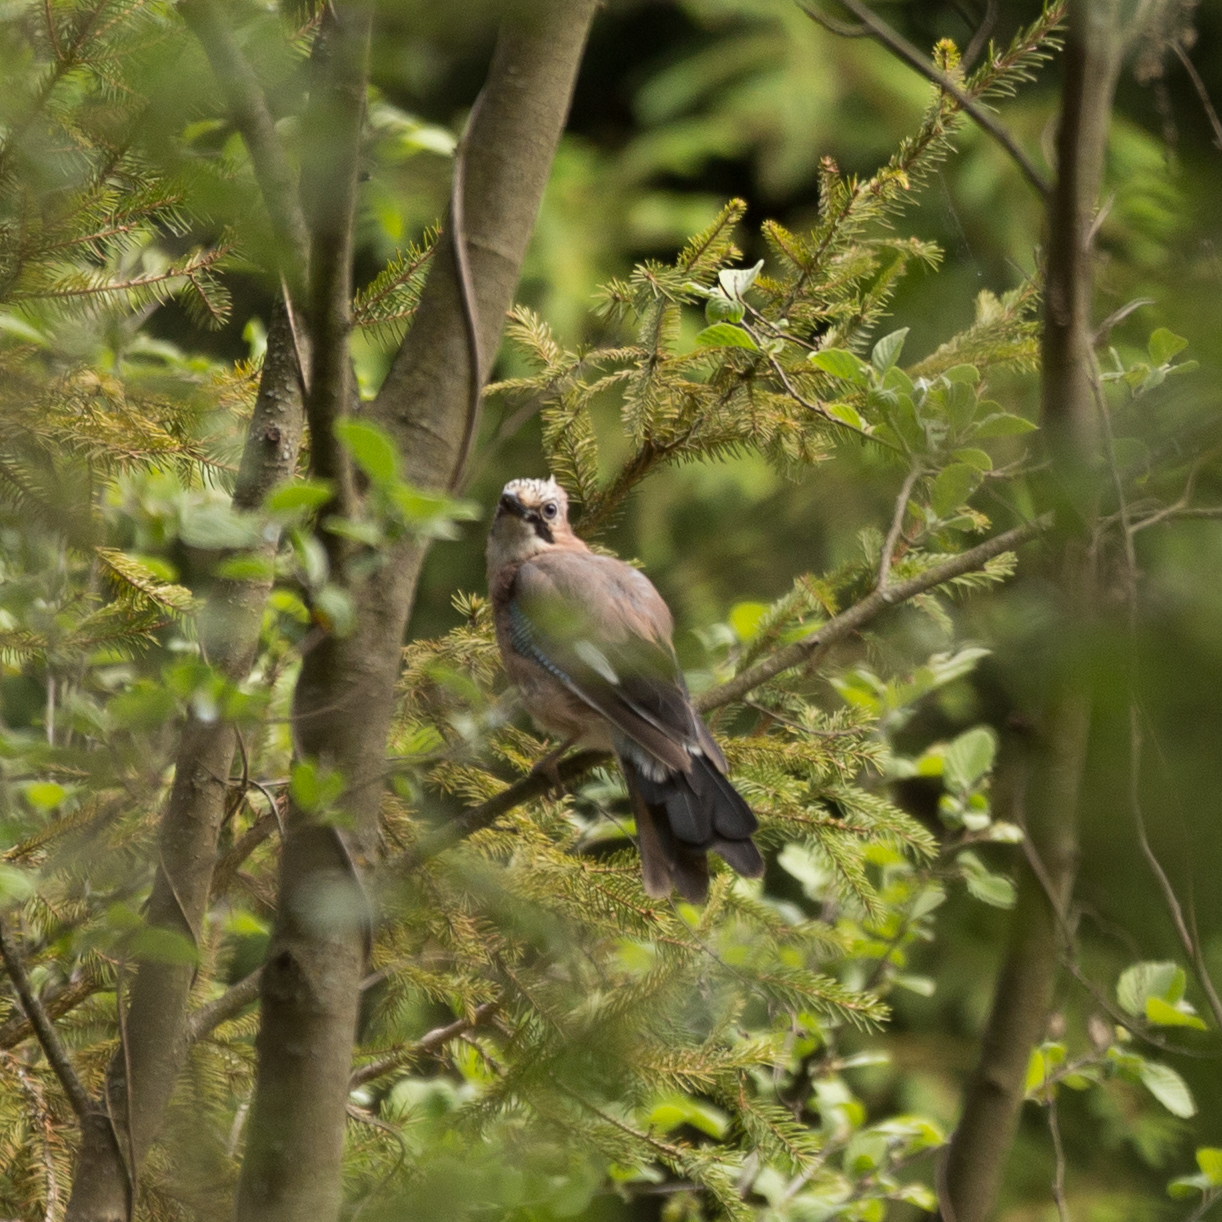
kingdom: Animalia
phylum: Chordata
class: Aves
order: Passeriformes
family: Corvidae
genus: Garrulus
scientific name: Garrulus glandarius
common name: Eurasian jay
